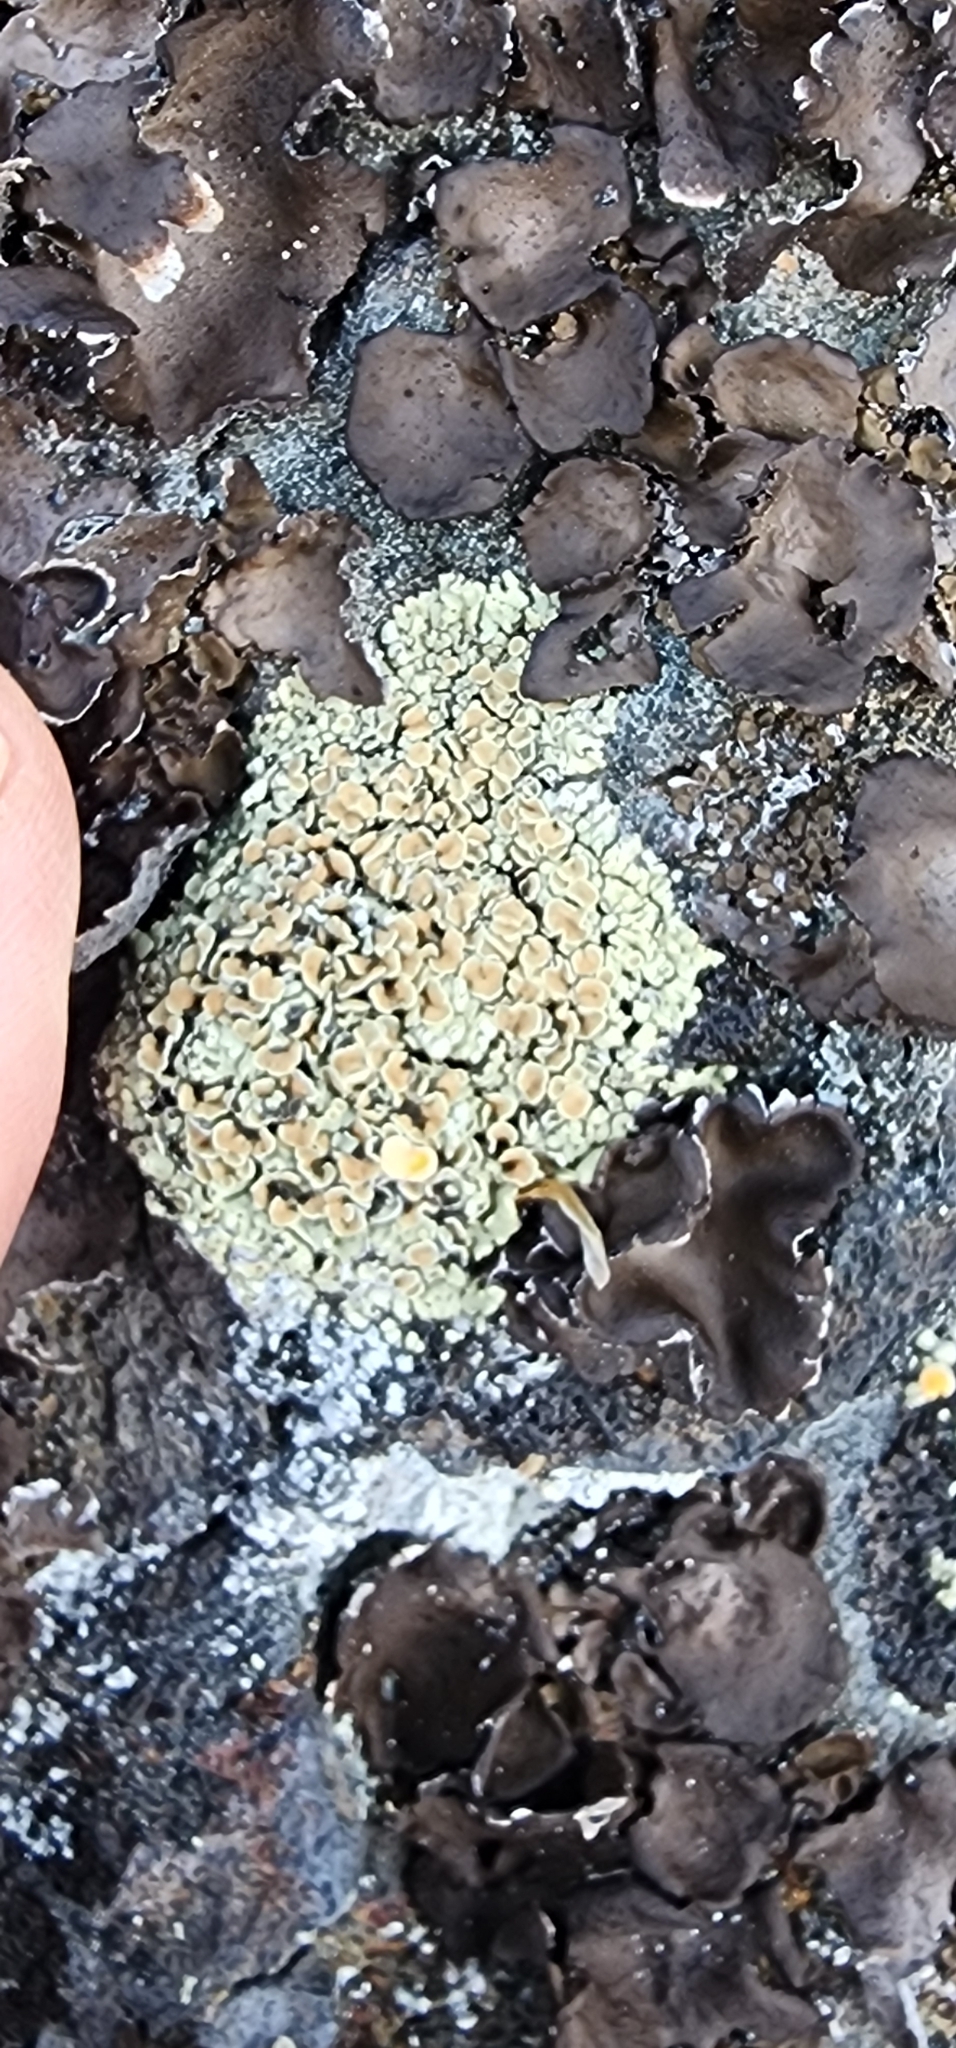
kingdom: Fungi
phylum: Ascomycota
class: Lecanoromycetes
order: Lecanorales
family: Lecanoraceae
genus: Omphalodina
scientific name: Omphalodina chrysoleuca
